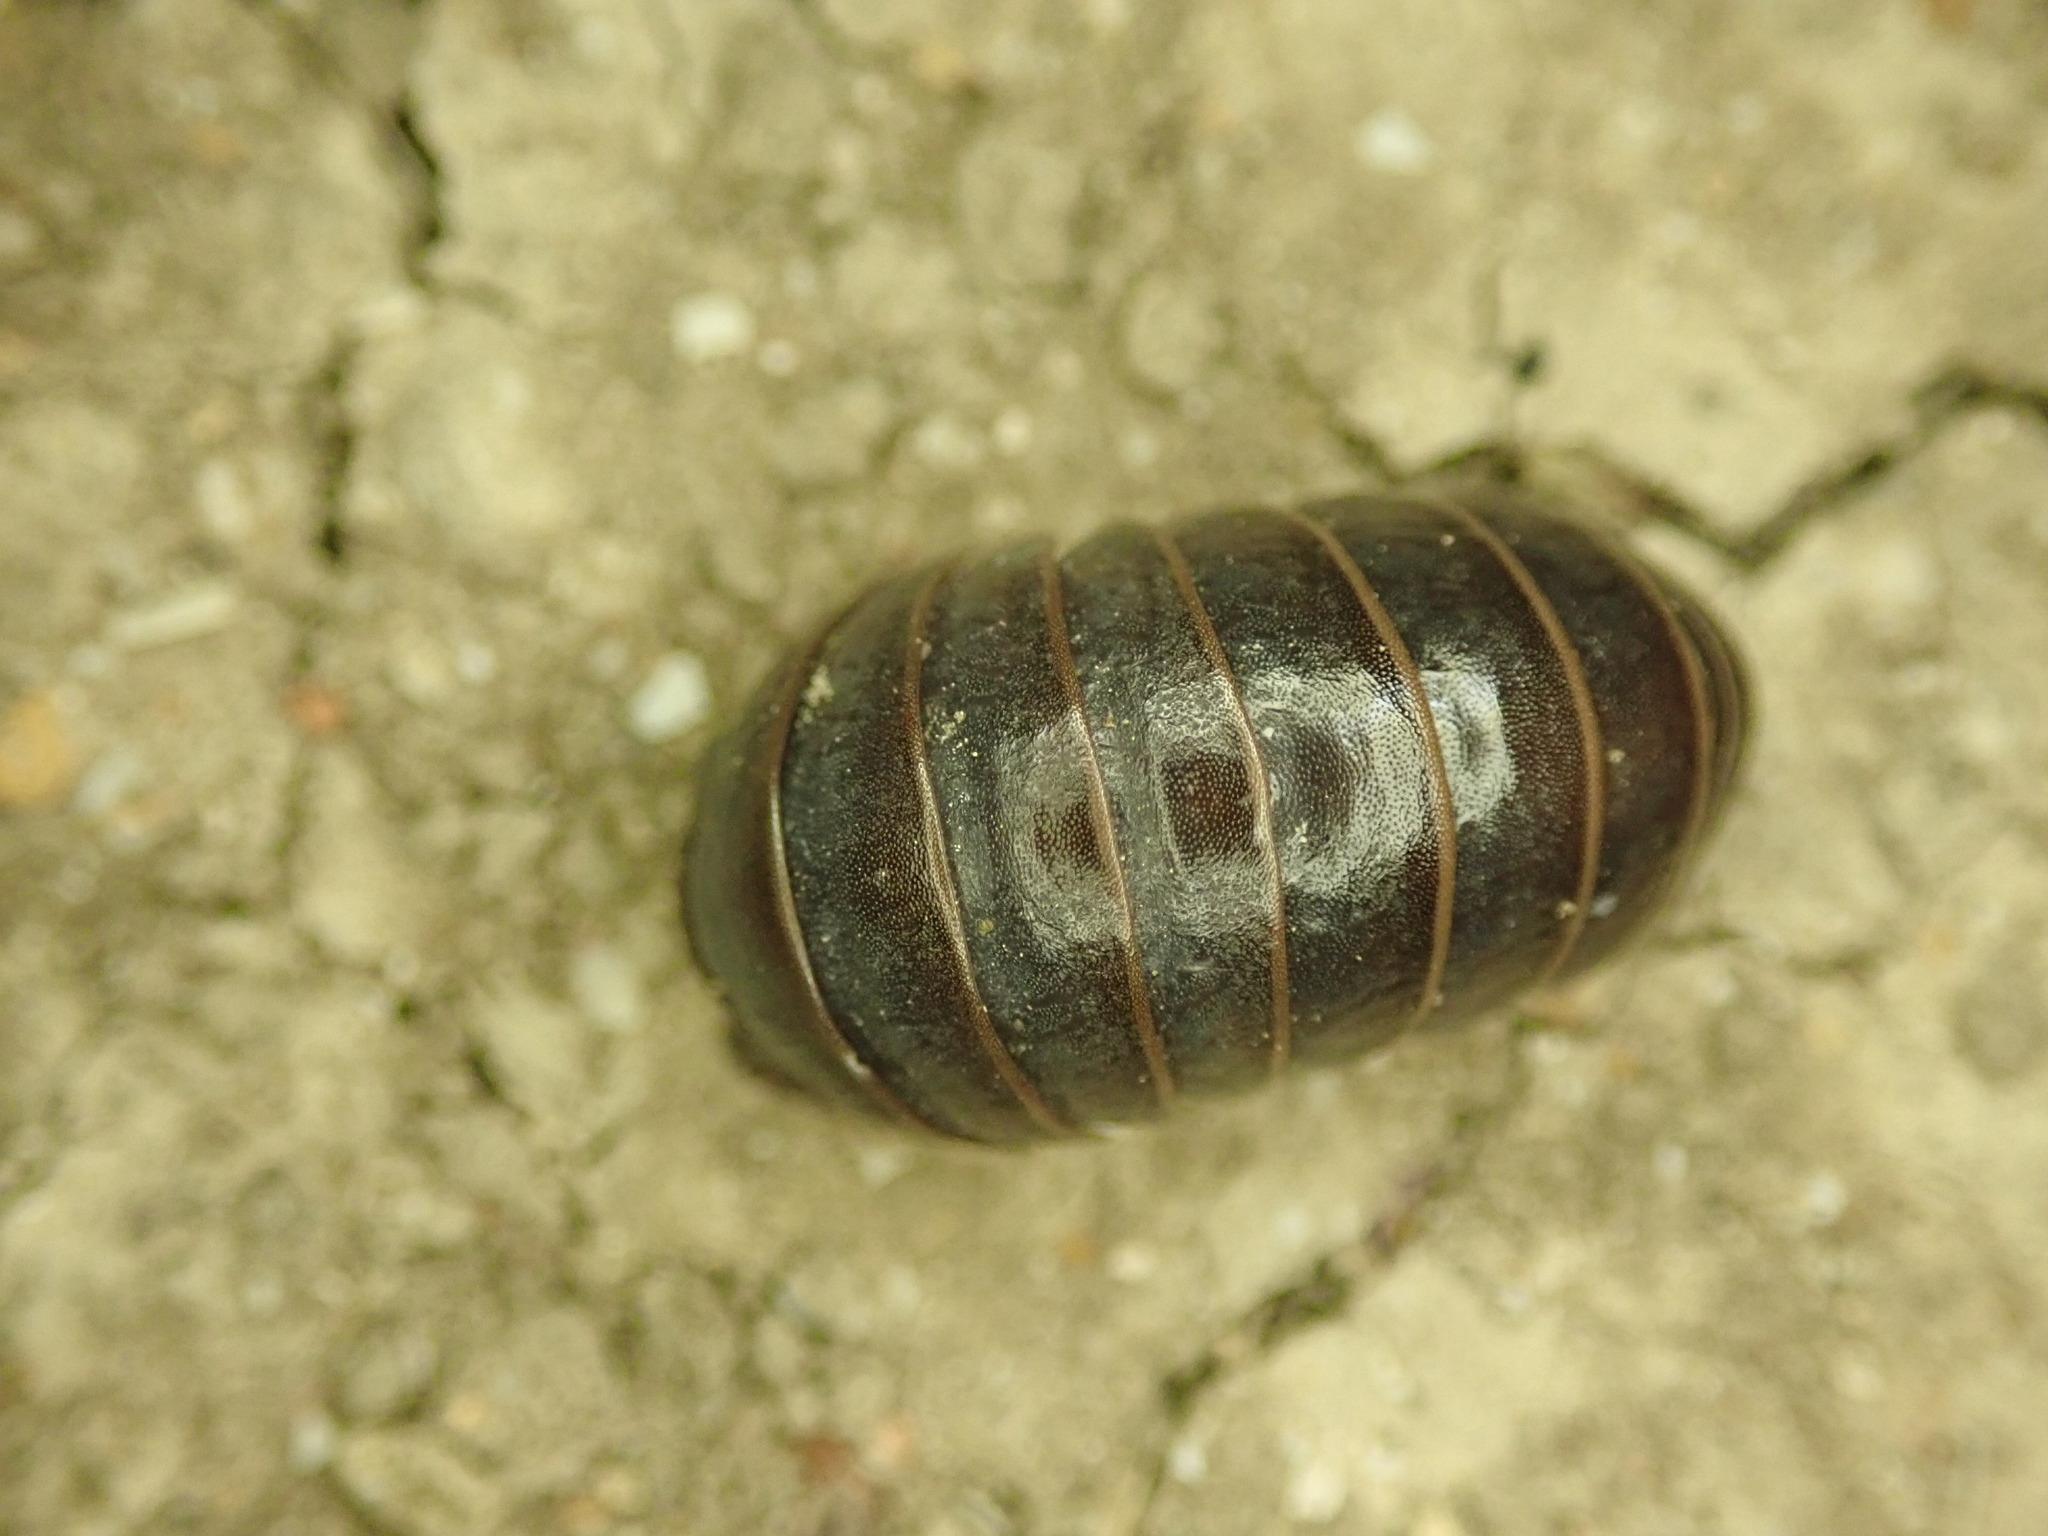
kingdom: Animalia
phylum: Arthropoda
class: Diplopoda
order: Glomerida
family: Glomeridae
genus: Glomeris
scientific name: Glomeris marginata
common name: Bordered pill millipede
